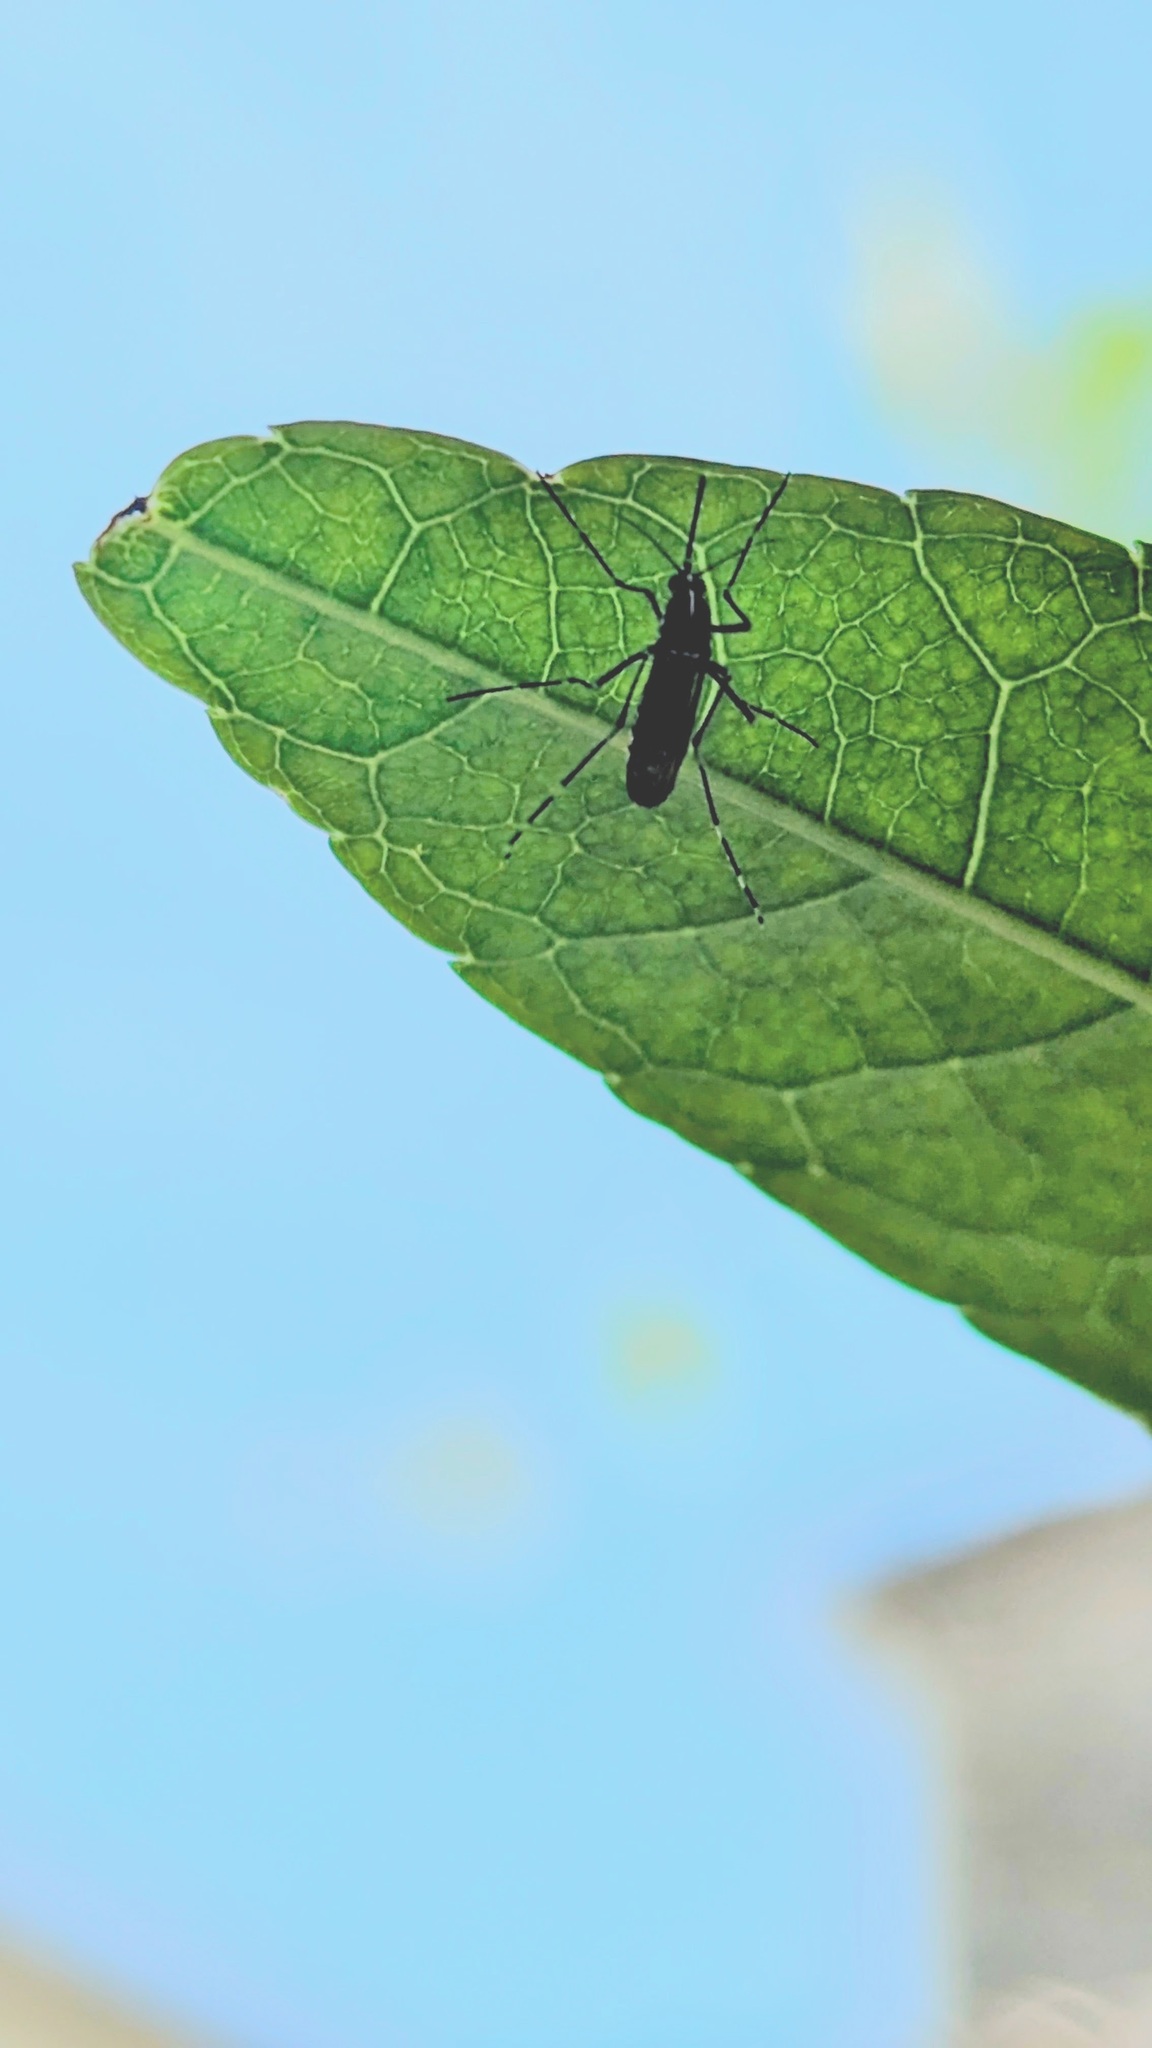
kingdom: Animalia
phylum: Arthropoda
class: Insecta
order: Diptera
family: Culicidae
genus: Aedes
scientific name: Aedes albopictus
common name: Tiger mosquito
